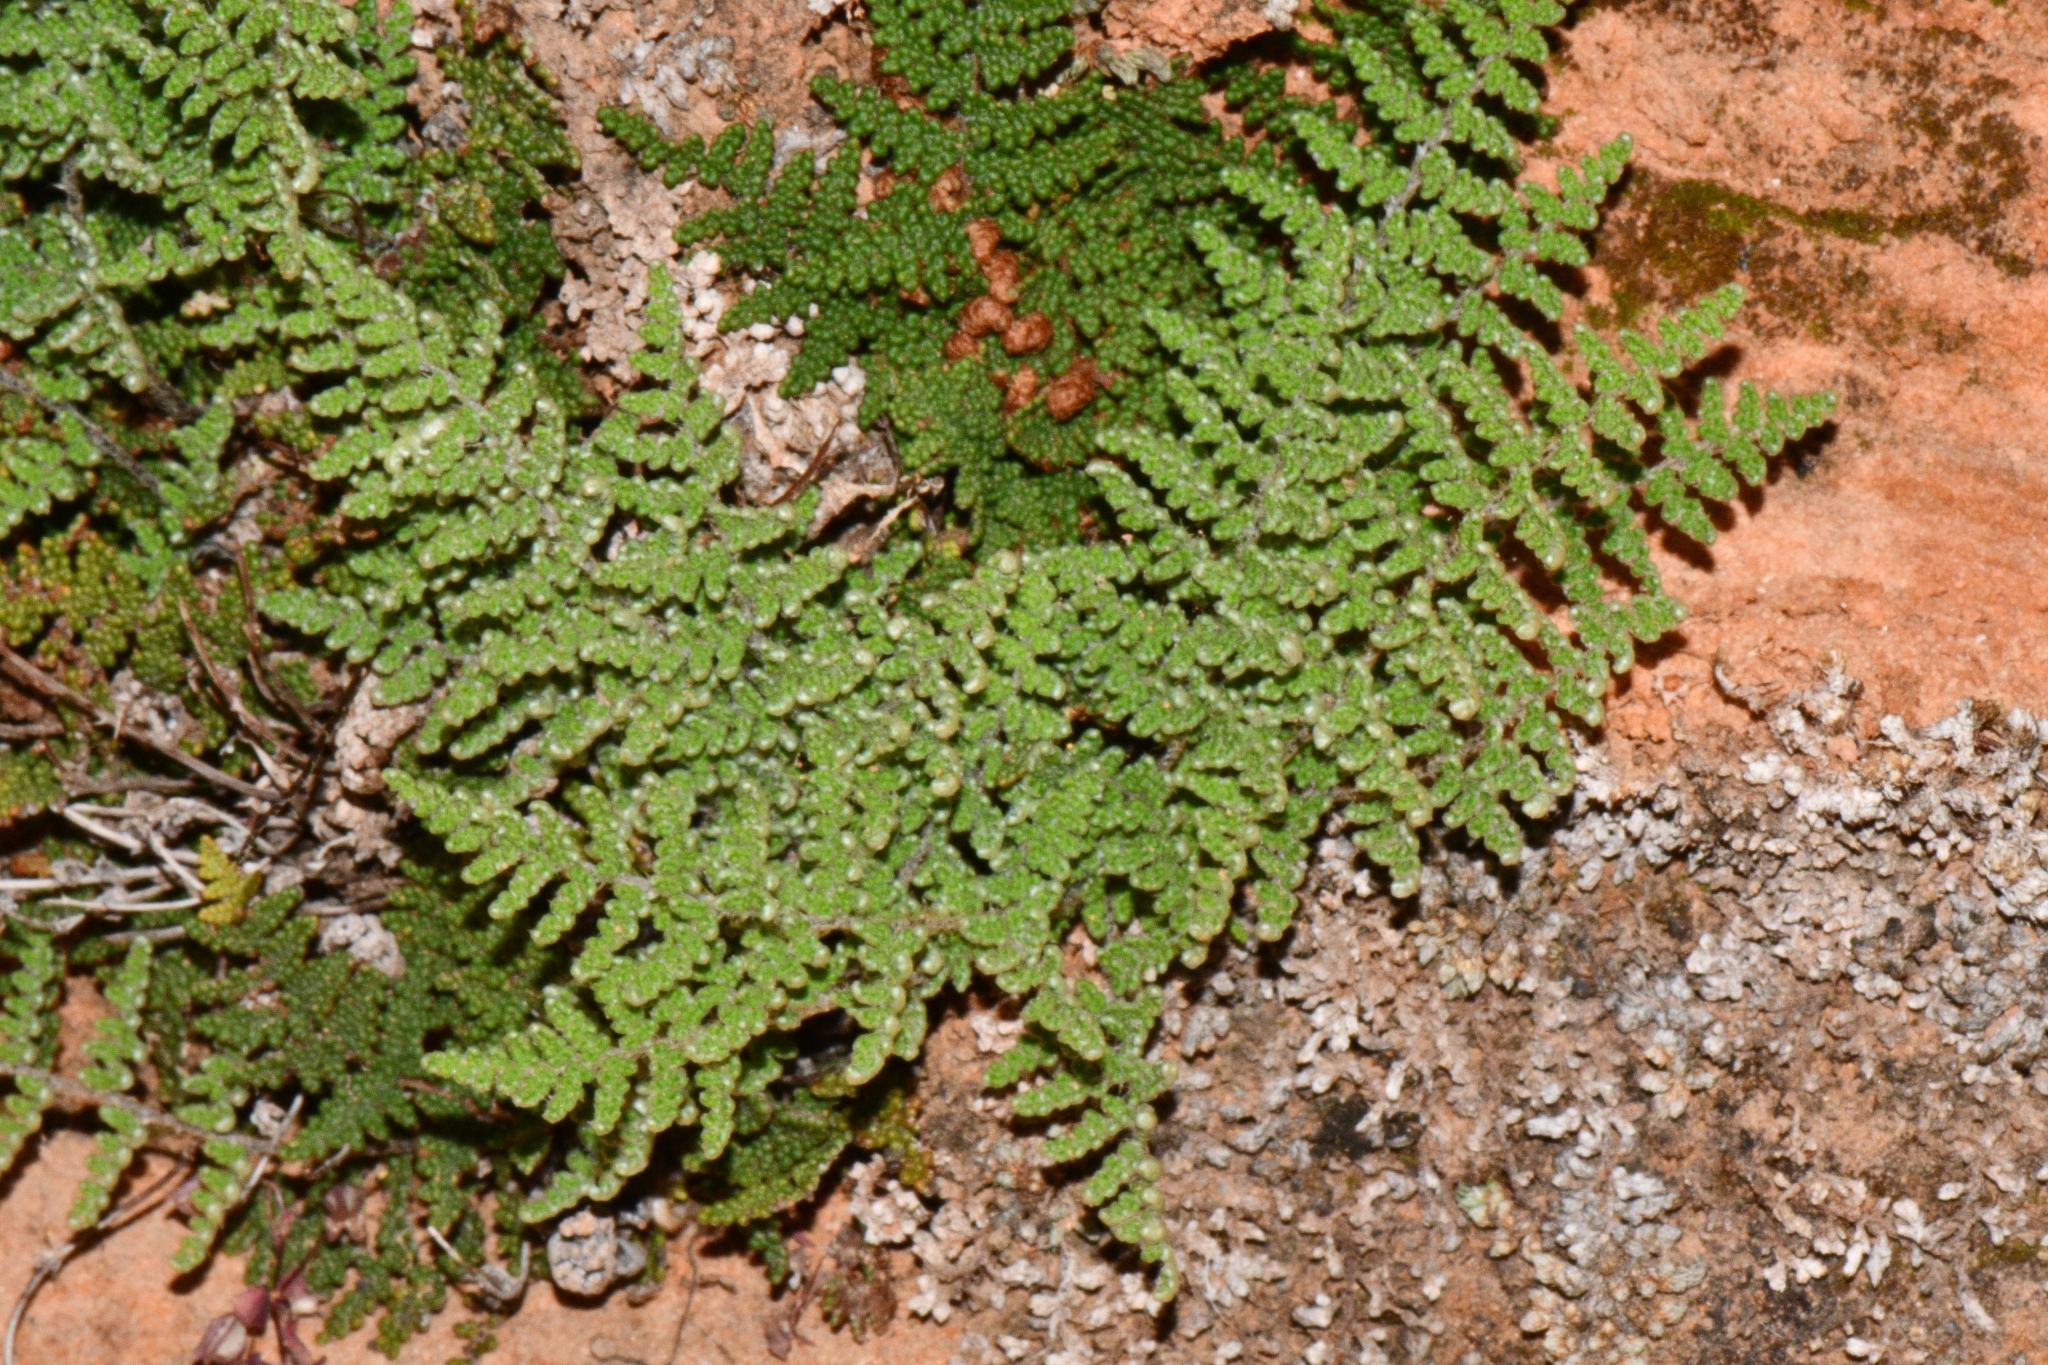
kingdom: Plantae
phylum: Tracheophyta
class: Polypodiopsida
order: Polypodiales
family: Pteridaceae
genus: Myriopteris
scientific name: Myriopteris covillei
